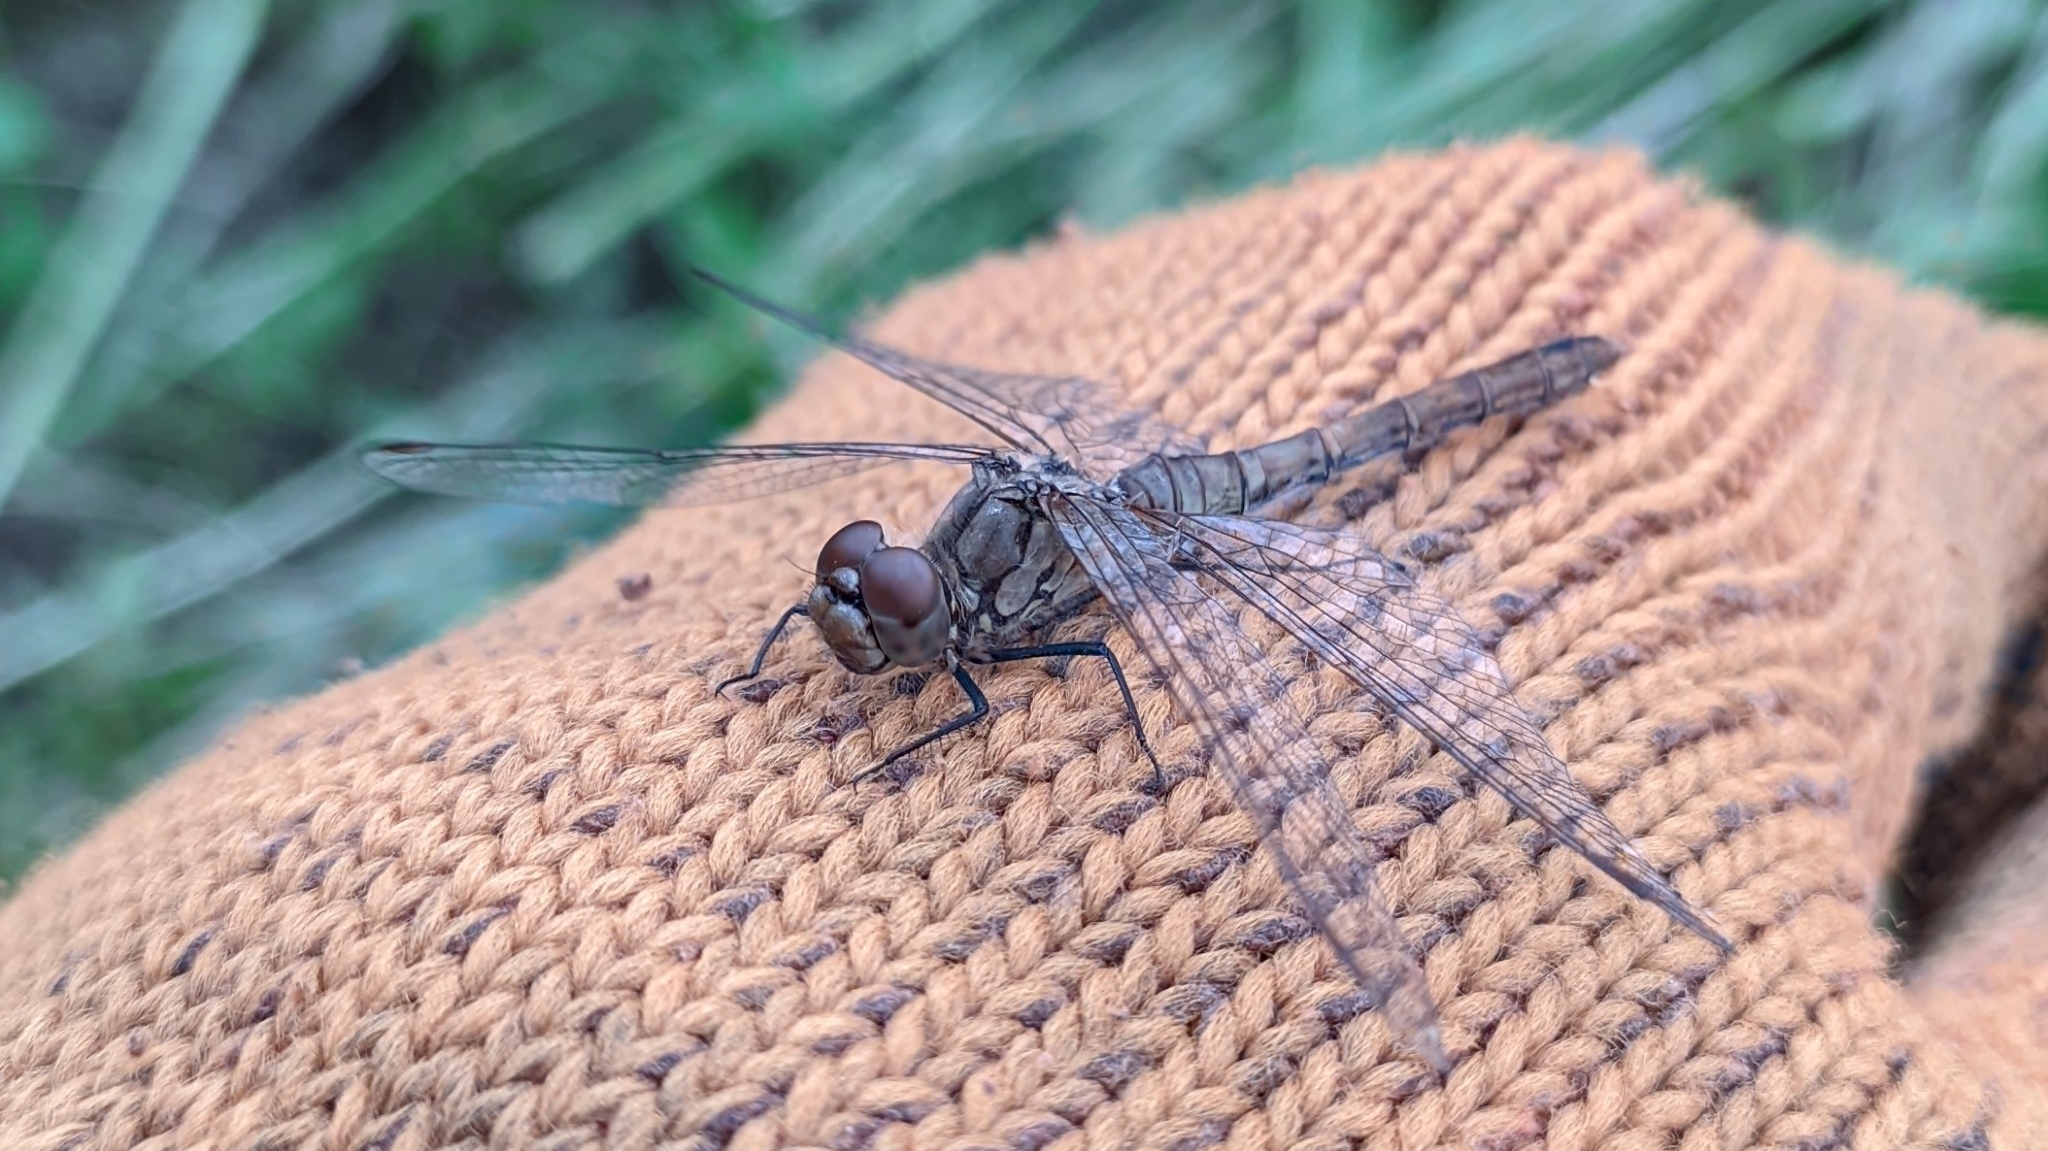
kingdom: Animalia
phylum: Arthropoda
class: Insecta
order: Odonata
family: Libellulidae
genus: Sympetrum
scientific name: Sympetrum sanguineum
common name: Ruddy darter
